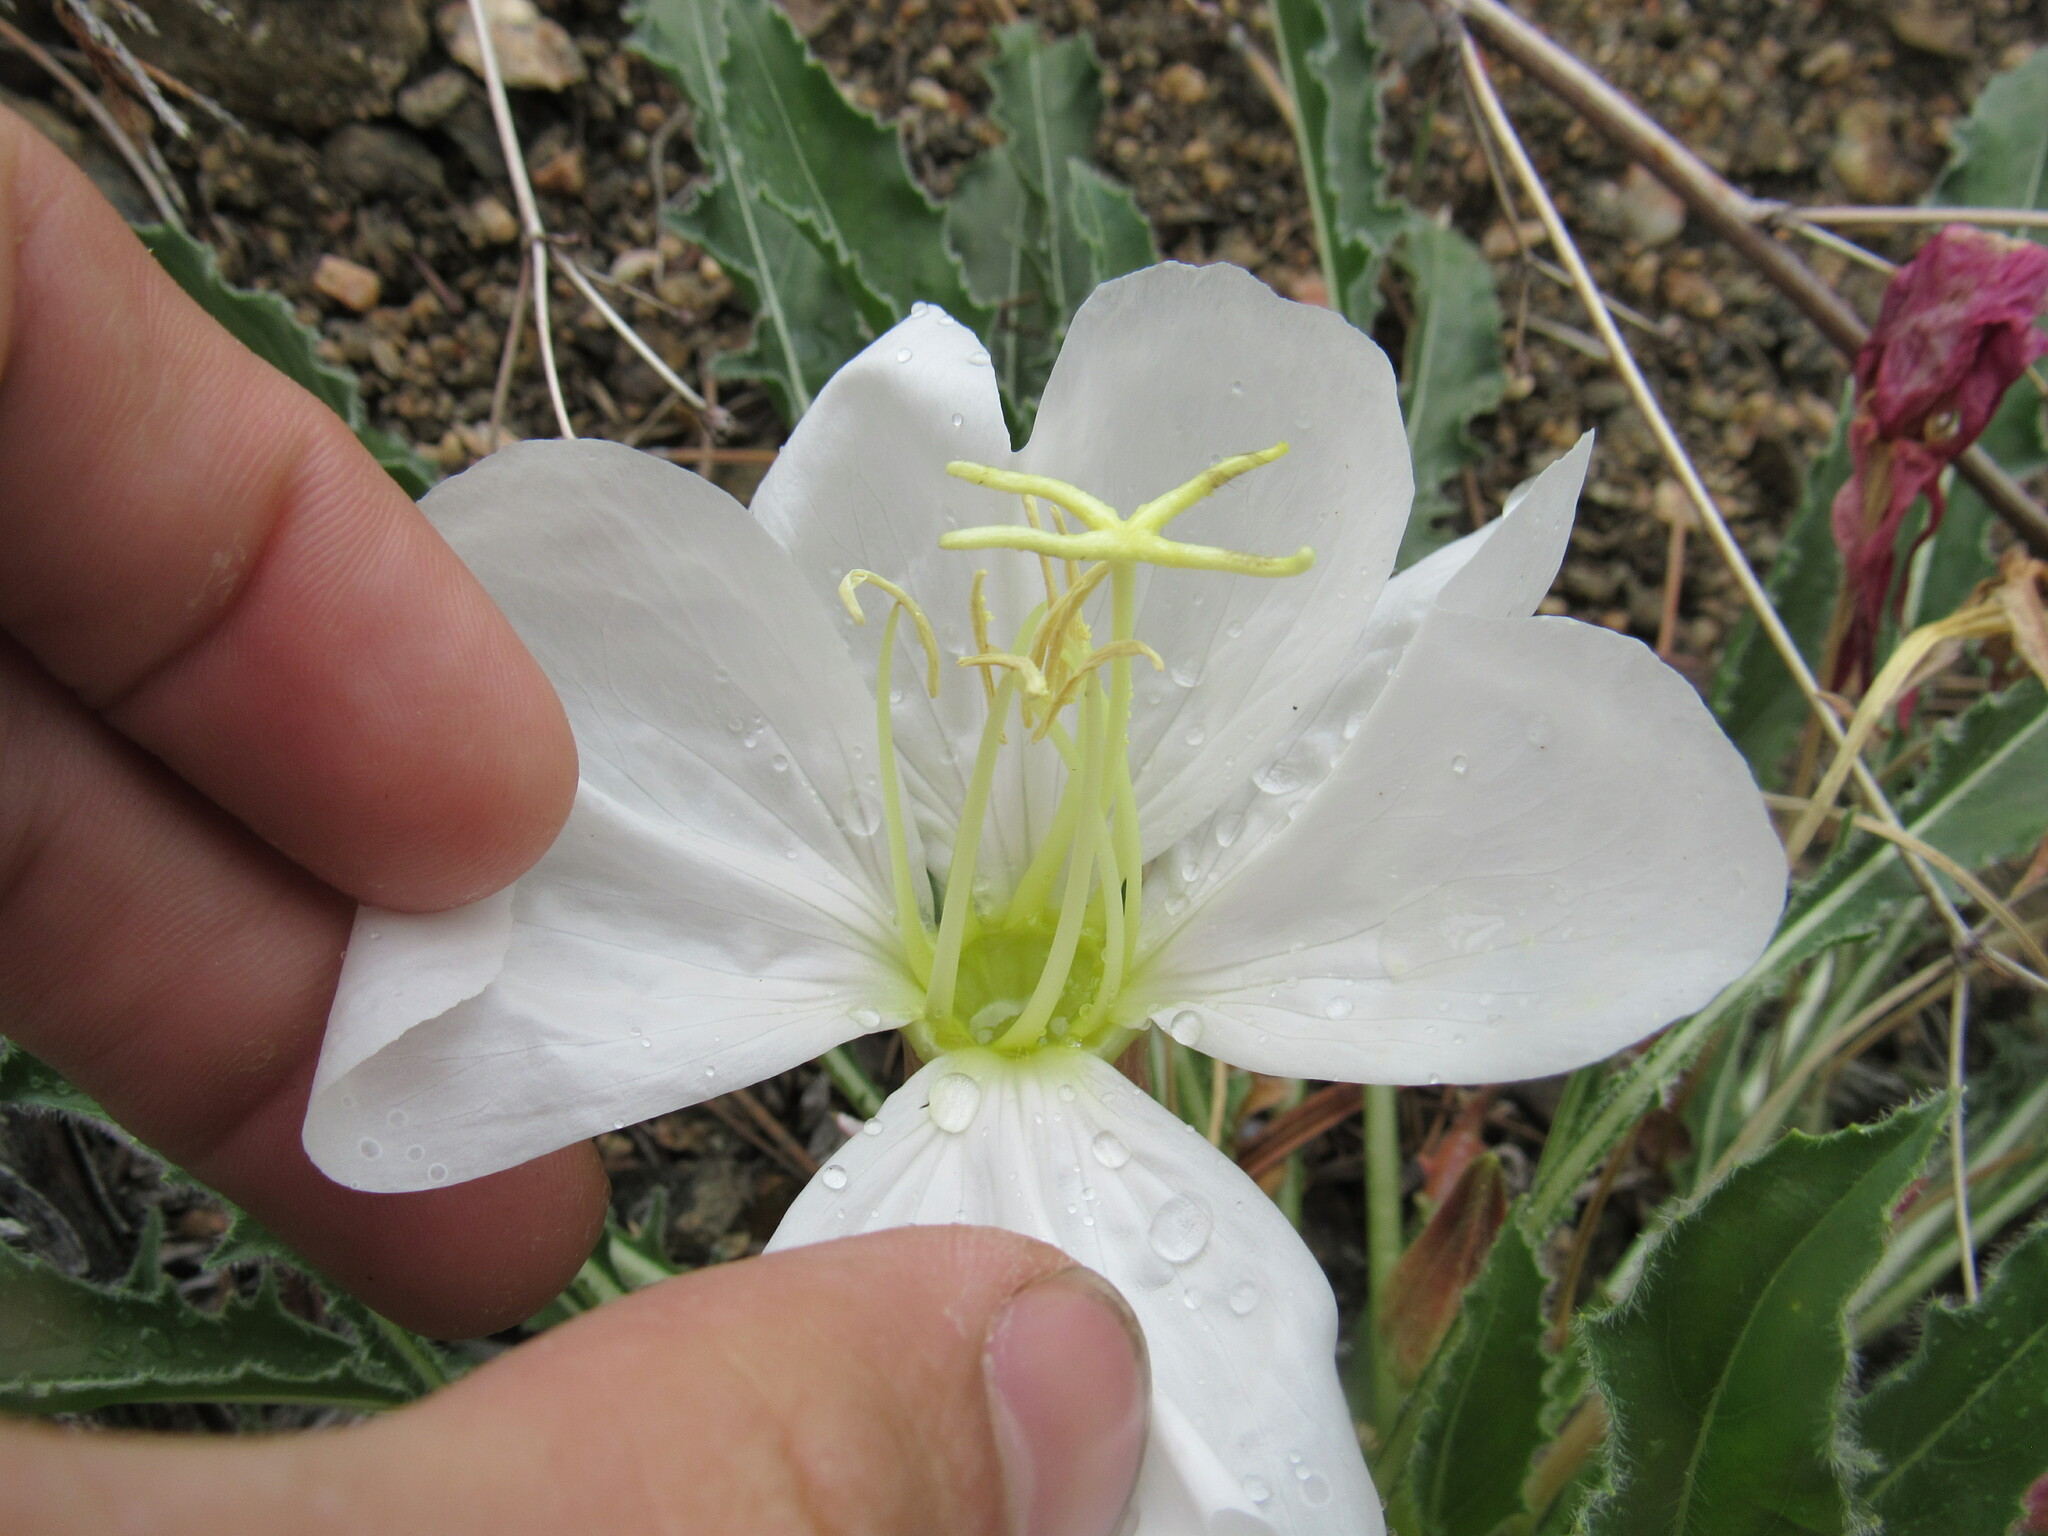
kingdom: Plantae
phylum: Tracheophyta
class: Magnoliopsida
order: Myrtales
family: Onagraceae
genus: Oenothera
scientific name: Oenothera cespitosa
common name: Tufted evening-primrose
